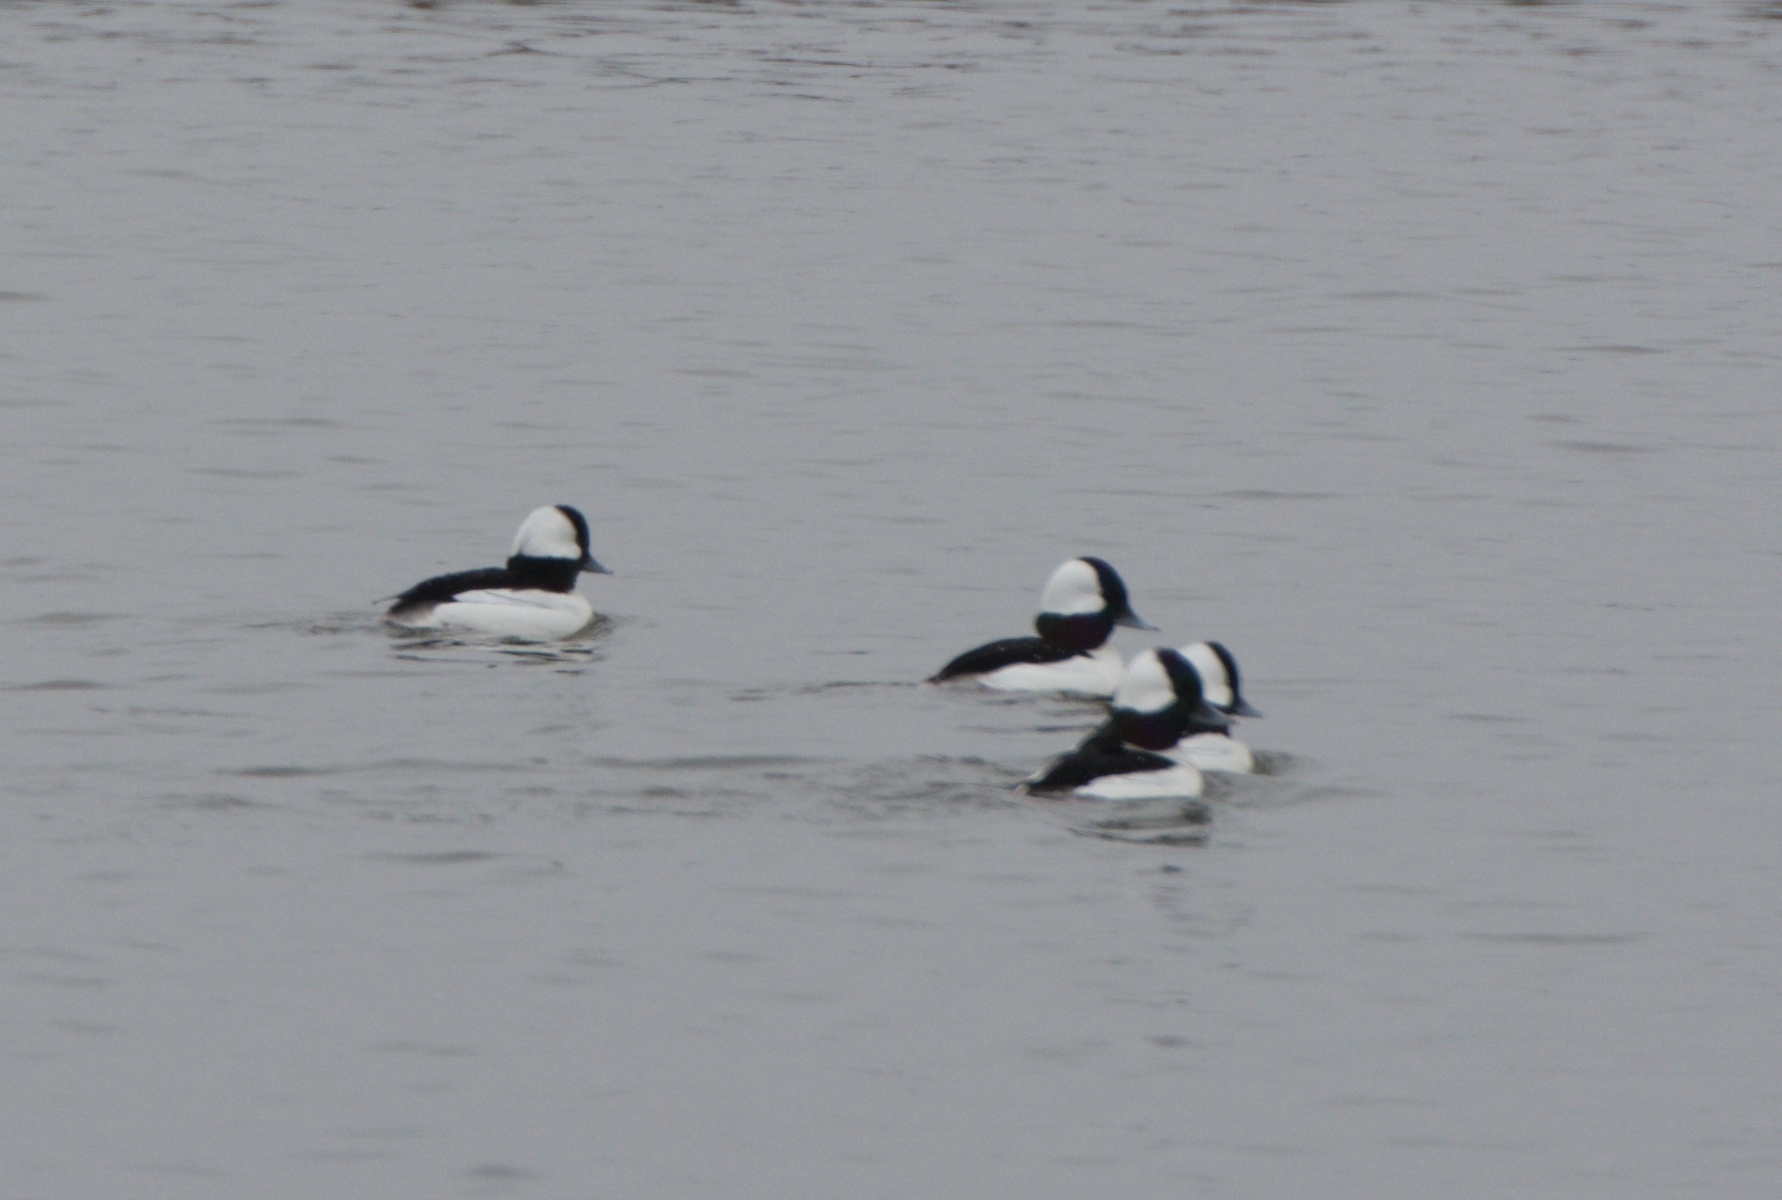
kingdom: Animalia
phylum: Chordata
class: Aves
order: Anseriformes
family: Anatidae
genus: Bucephala
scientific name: Bucephala albeola
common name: Bufflehead
